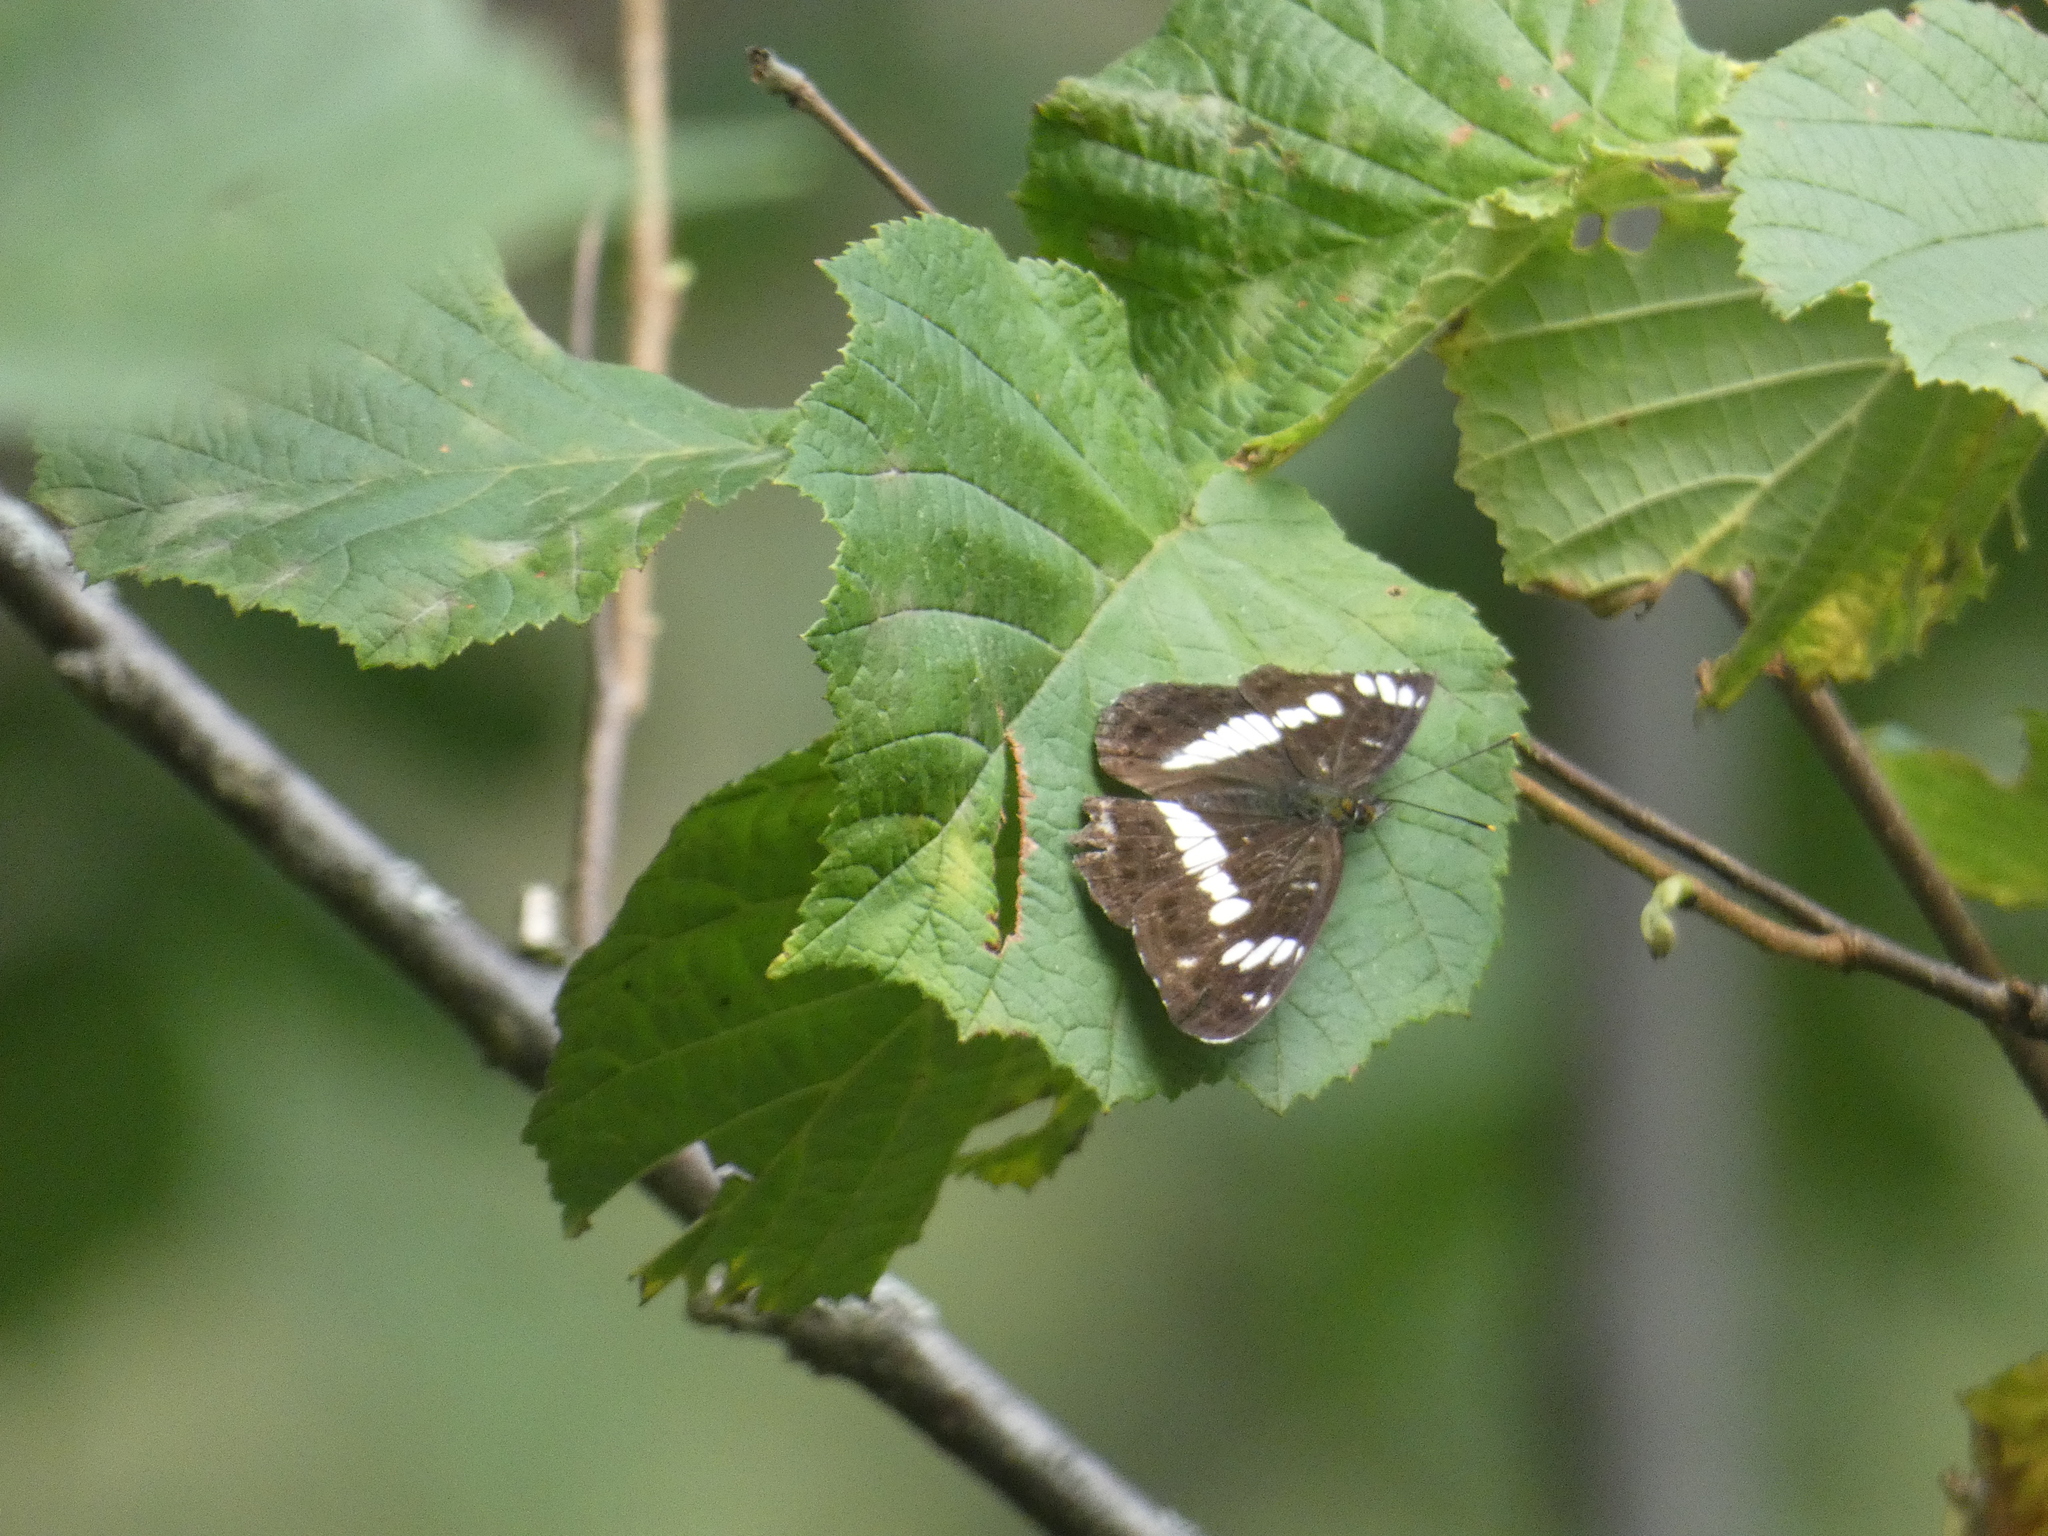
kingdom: Animalia
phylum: Arthropoda
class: Insecta
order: Lepidoptera
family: Nymphalidae
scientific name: Nymphalidae
